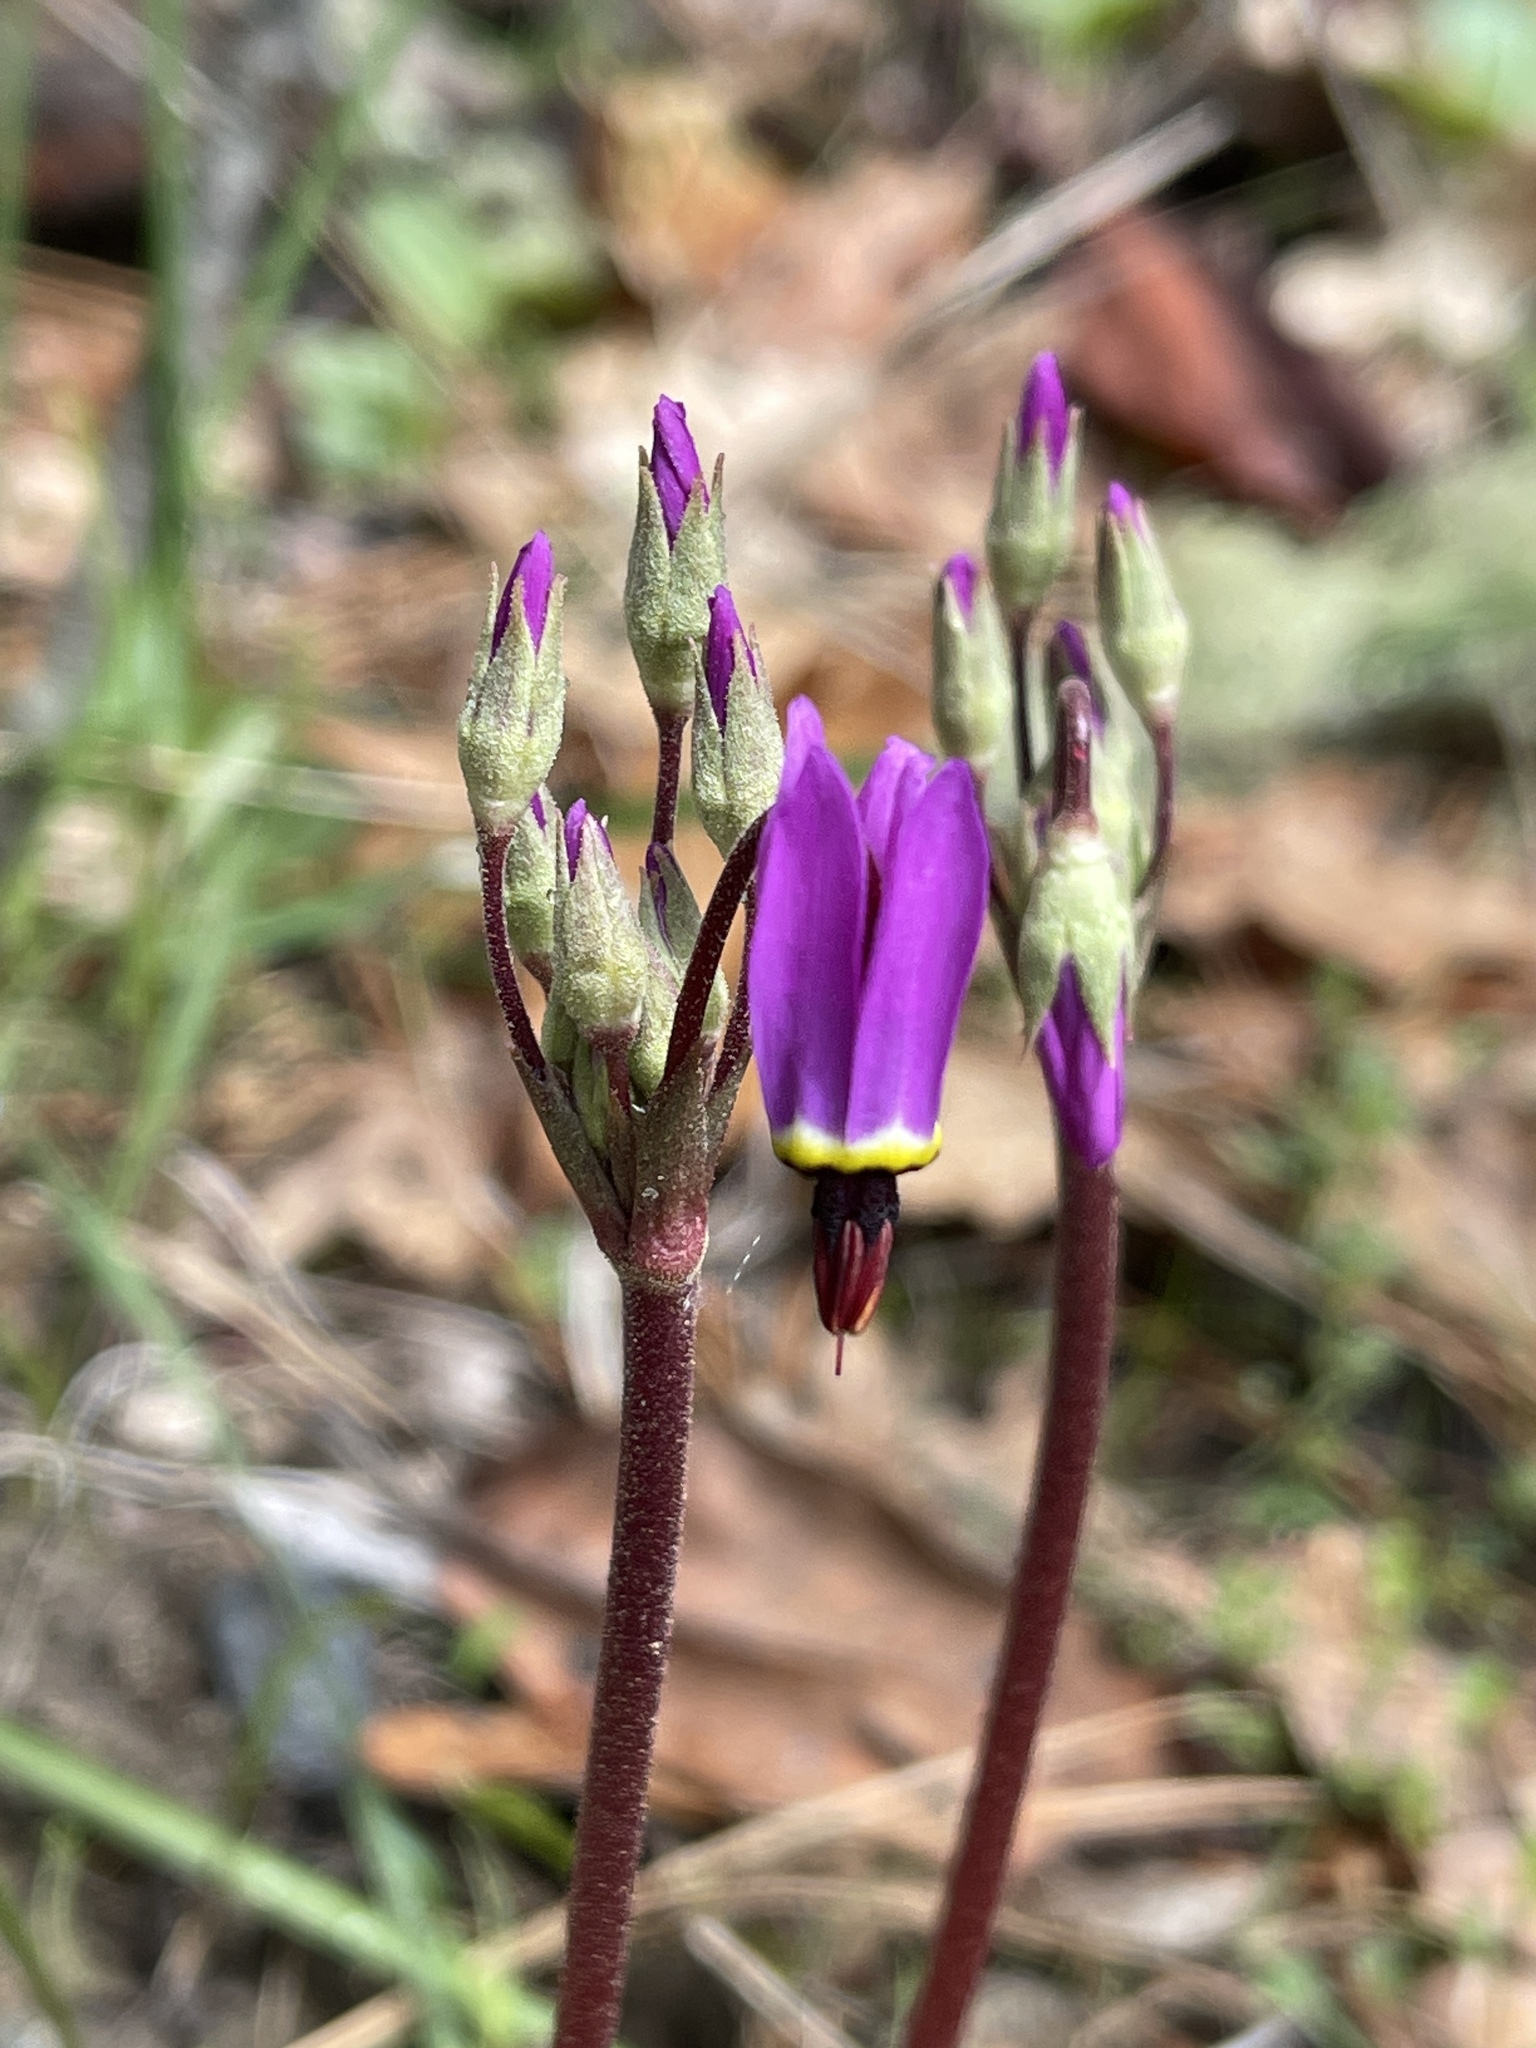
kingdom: Plantae
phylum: Tracheophyta
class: Magnoliopsida
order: Ericales
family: Primulaceae
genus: Dodecatheon
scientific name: Dodecatheon hendersonii
